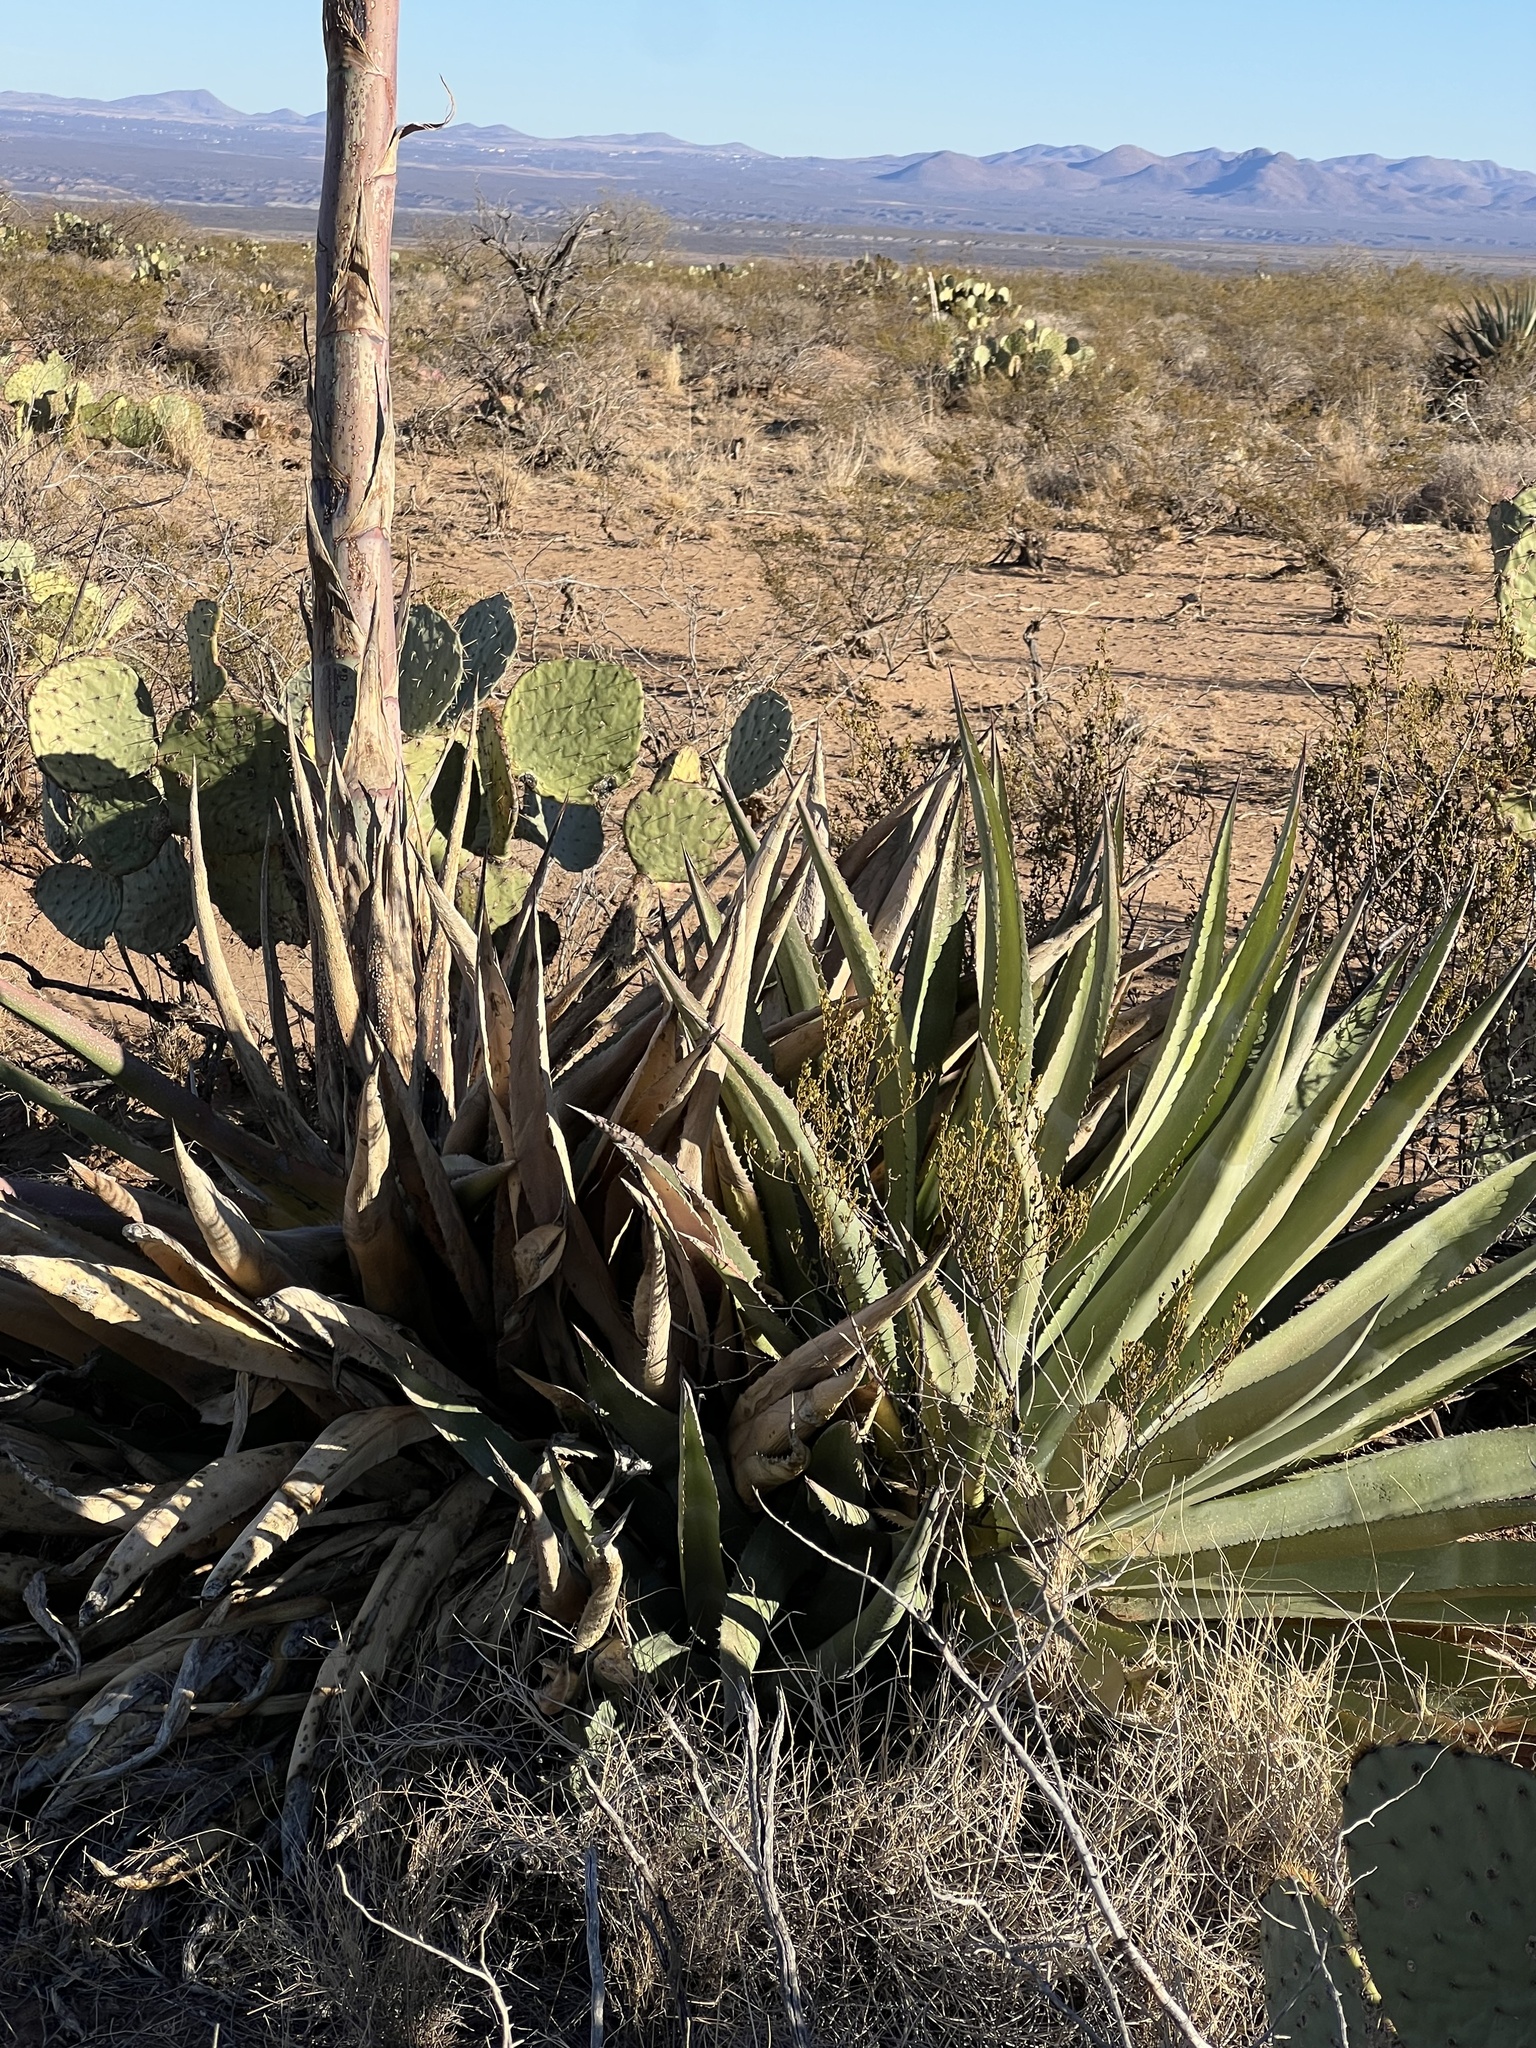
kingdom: Plantae
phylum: Tracheophyta
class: Liliopsida
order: Asparagales
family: Asparagaceae
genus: Agave
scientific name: Agave palmeri
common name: Palmer agave
